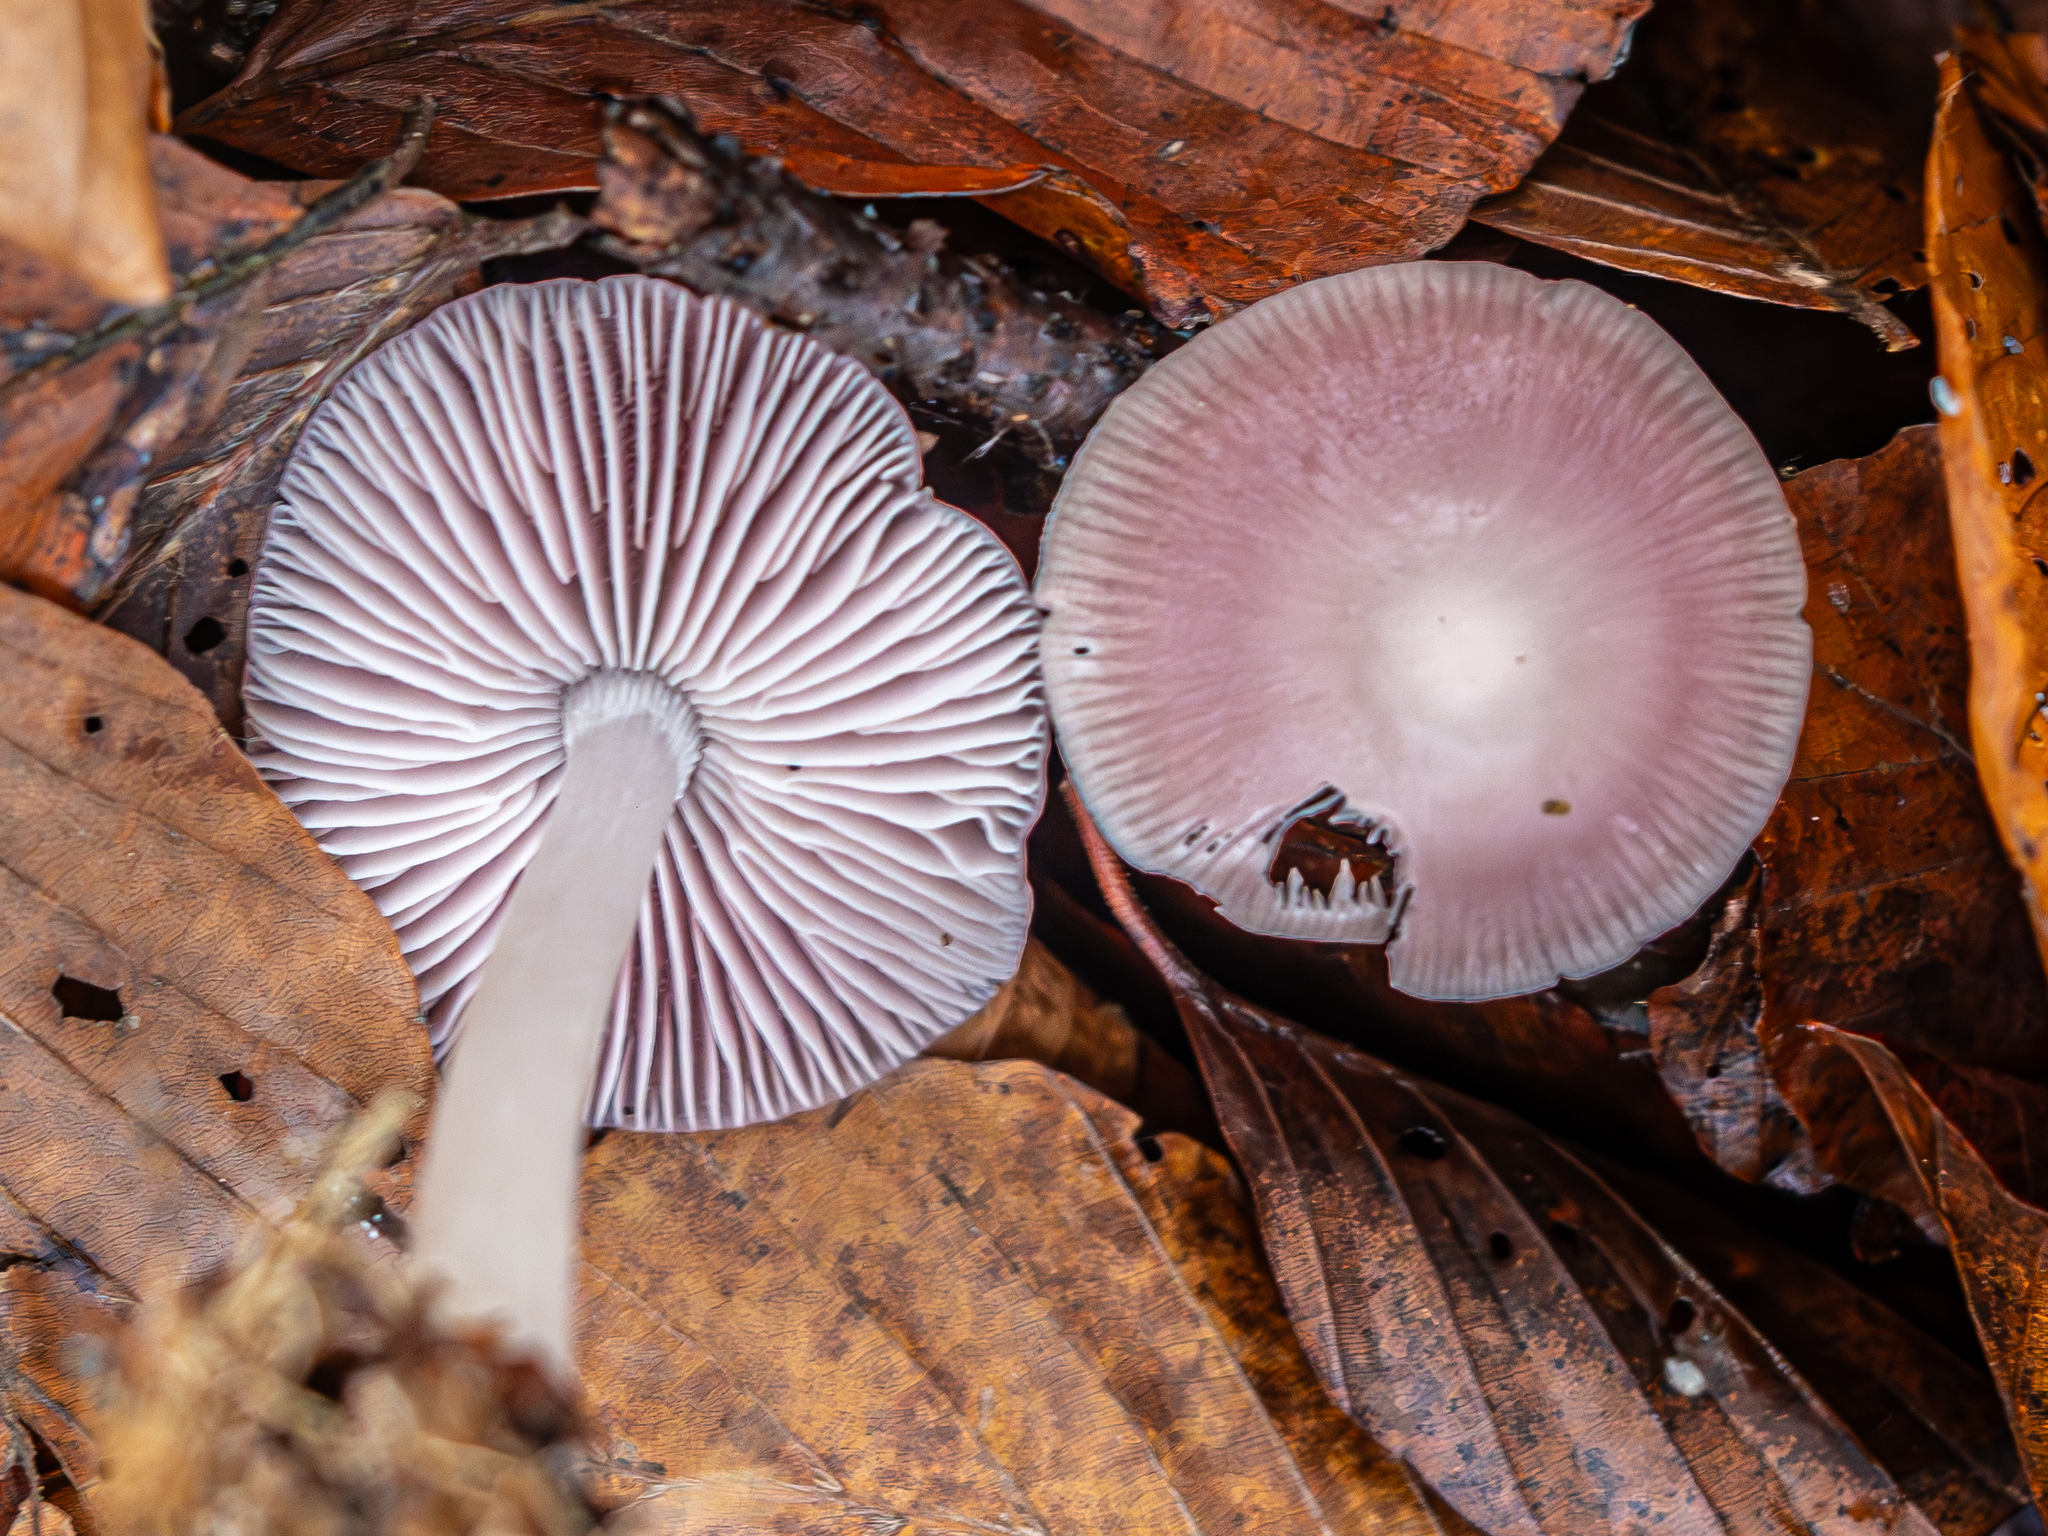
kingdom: Fungi
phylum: Basidiomycota
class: Agaricomycetes
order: Agaricales
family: Mycenaceae
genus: Mycena
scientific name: Mycena rosea
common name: Rosy bonnet
